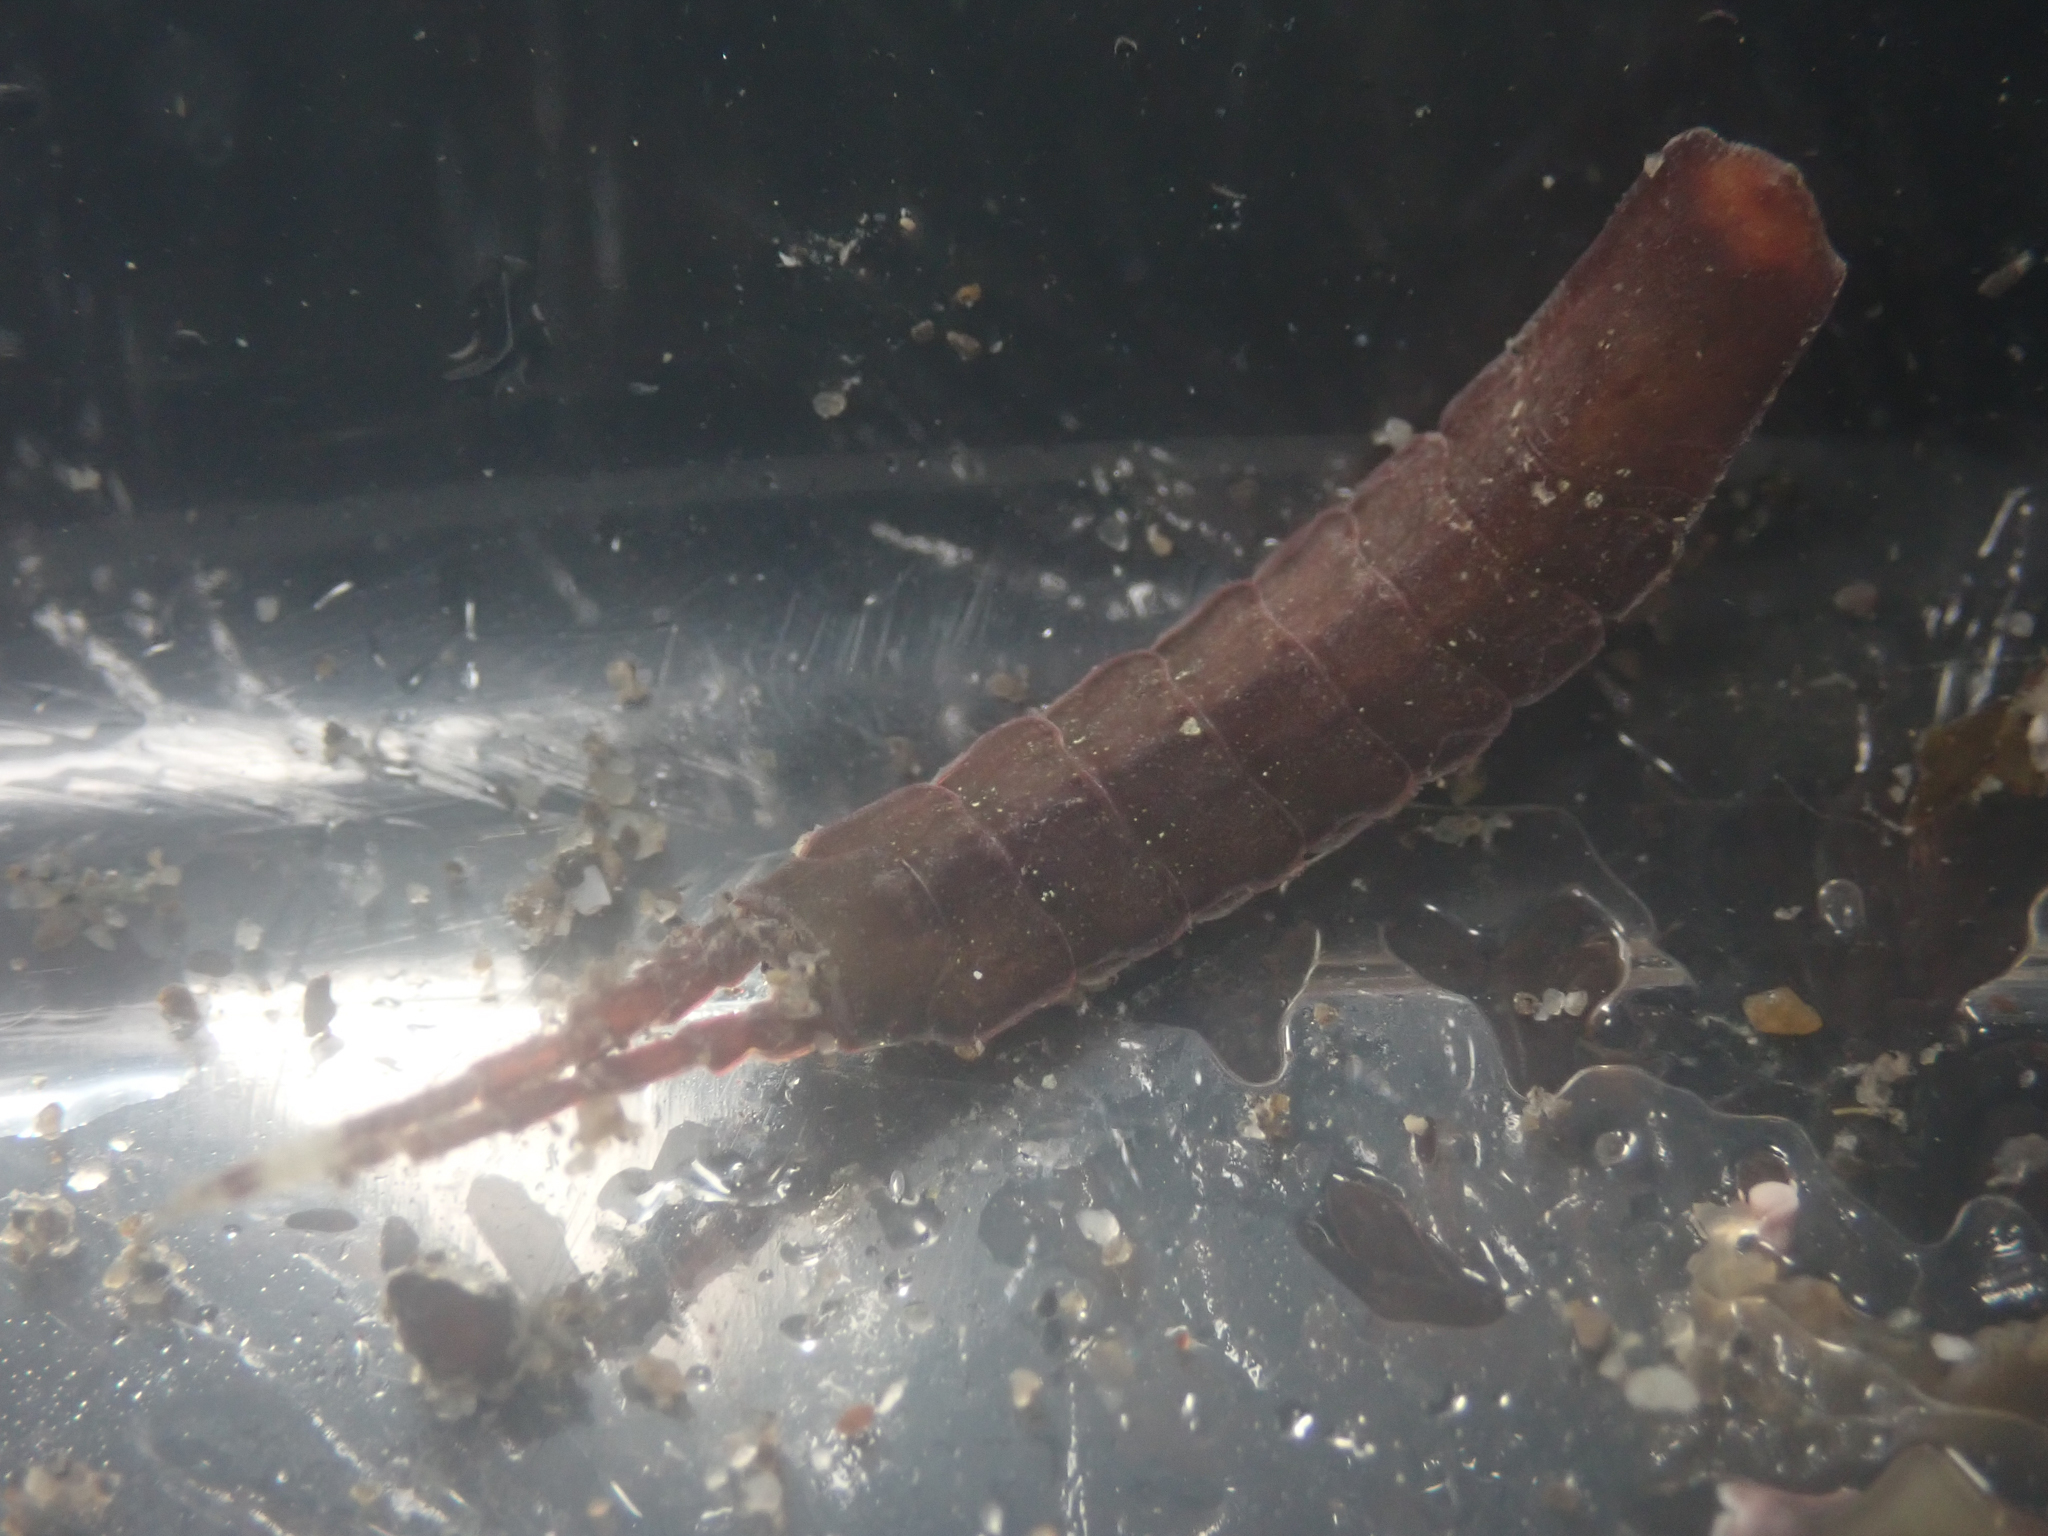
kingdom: Animalia
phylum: Arthropoda
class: Malacostraca
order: Isopoda
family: Idoteidae
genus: Idotea
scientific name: Idotea urotoma
